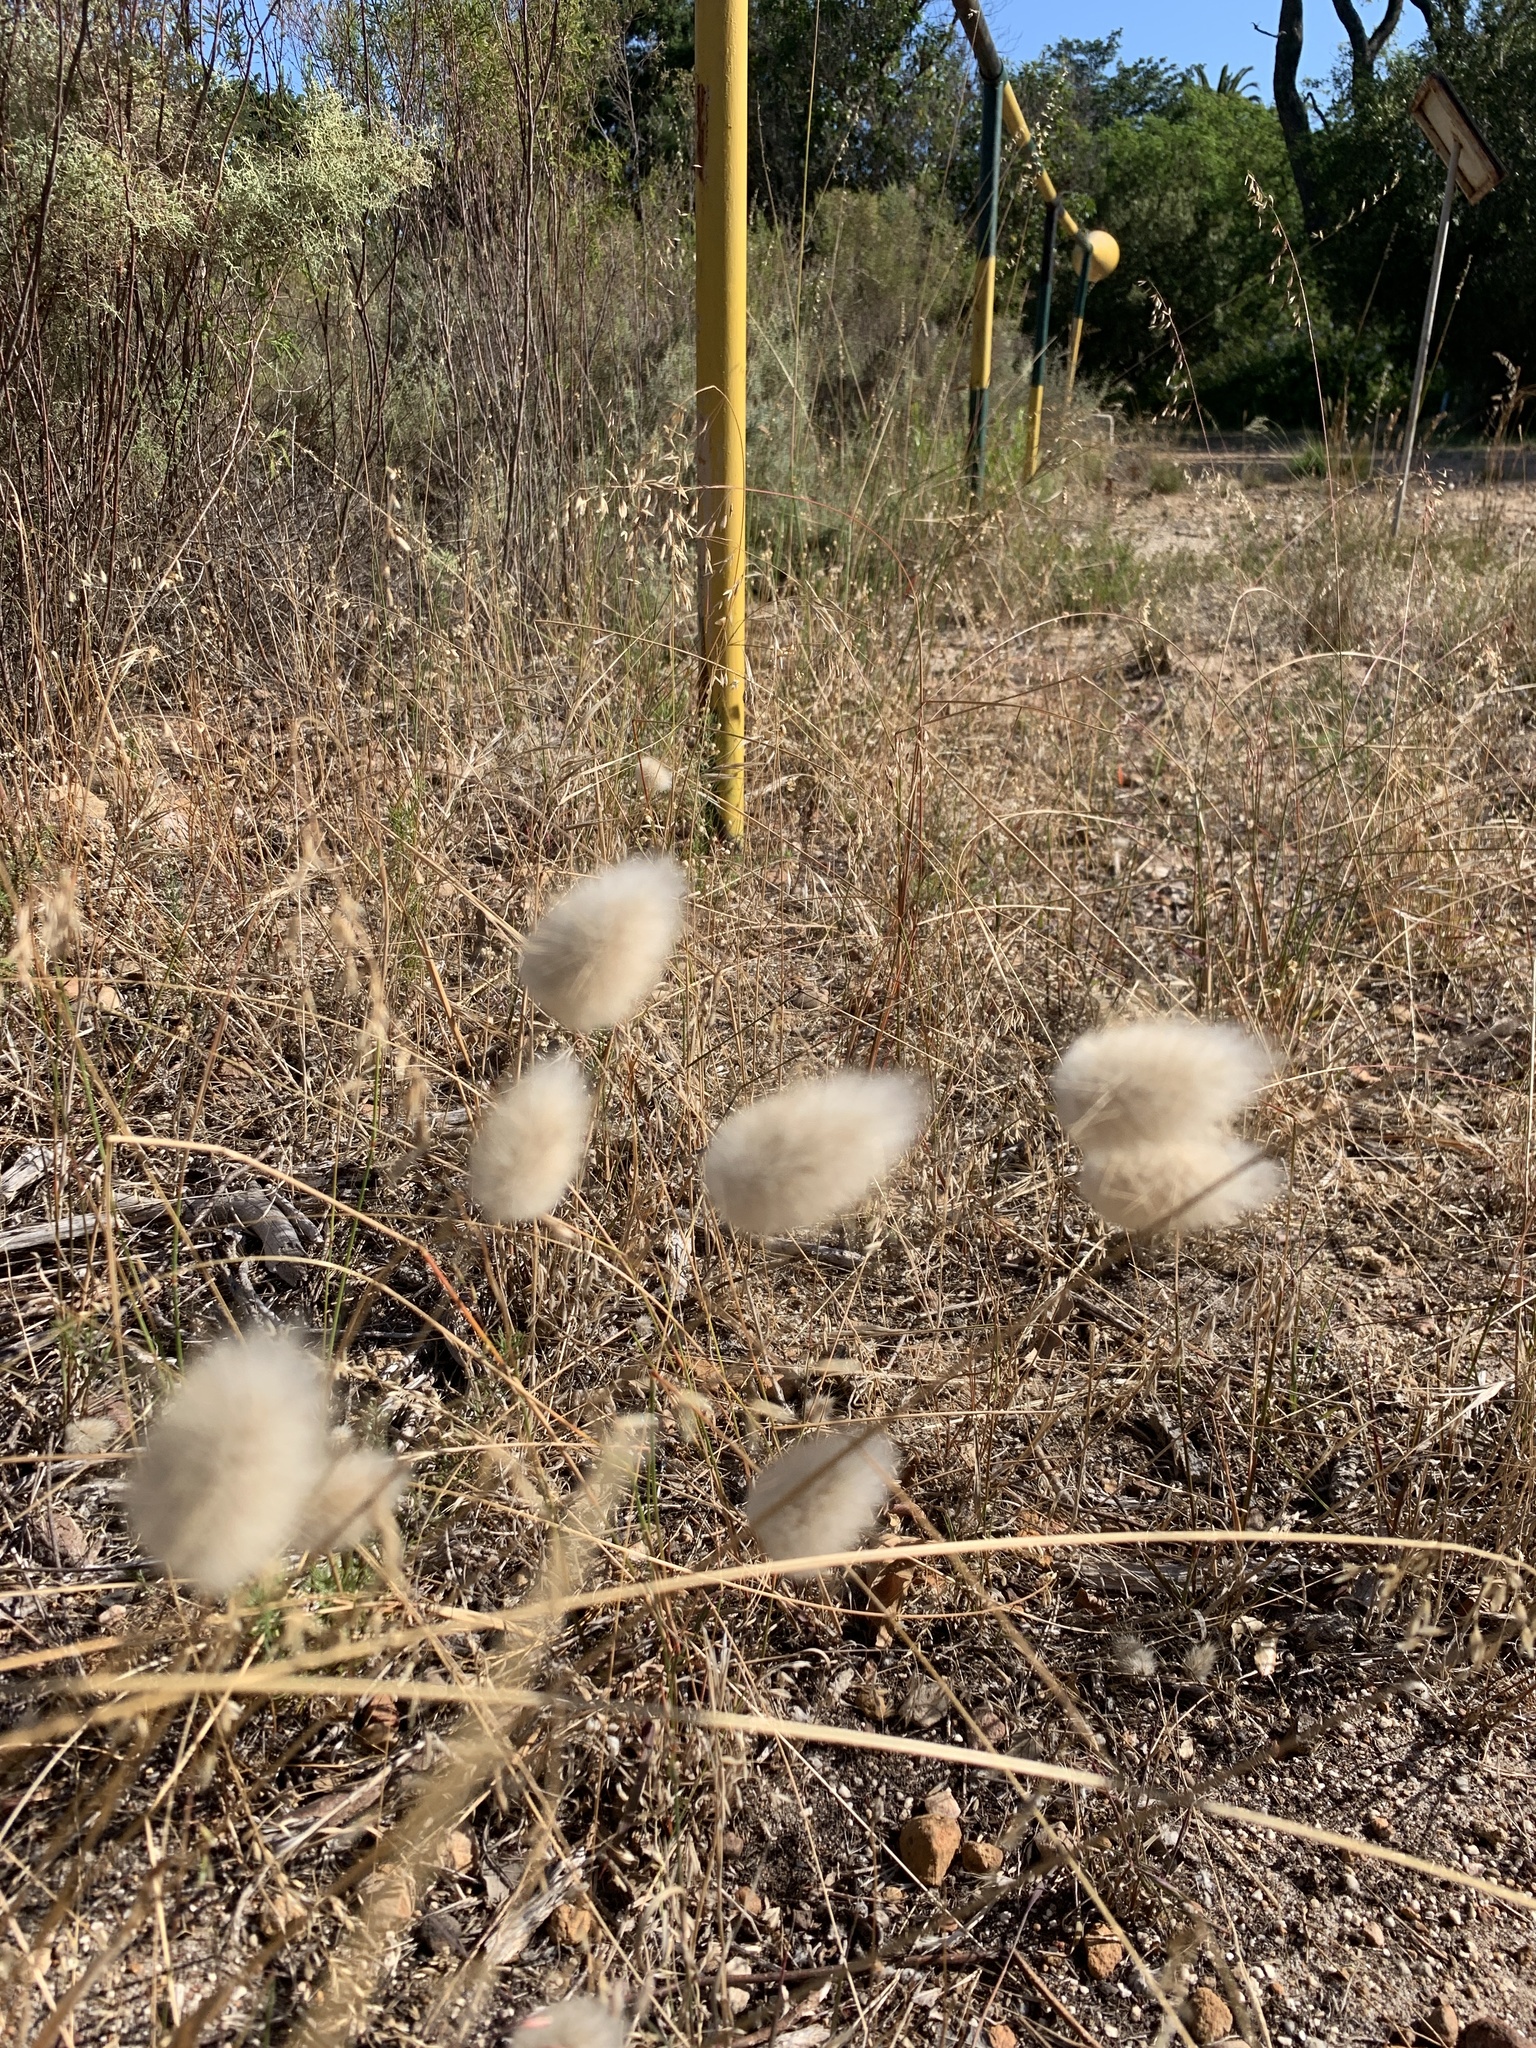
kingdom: Plantae
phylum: Tracheophyta
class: Liliopsida
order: Poales
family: Poaceae
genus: Lagurus
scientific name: Lagurus ovatus
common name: Hare's-tail
